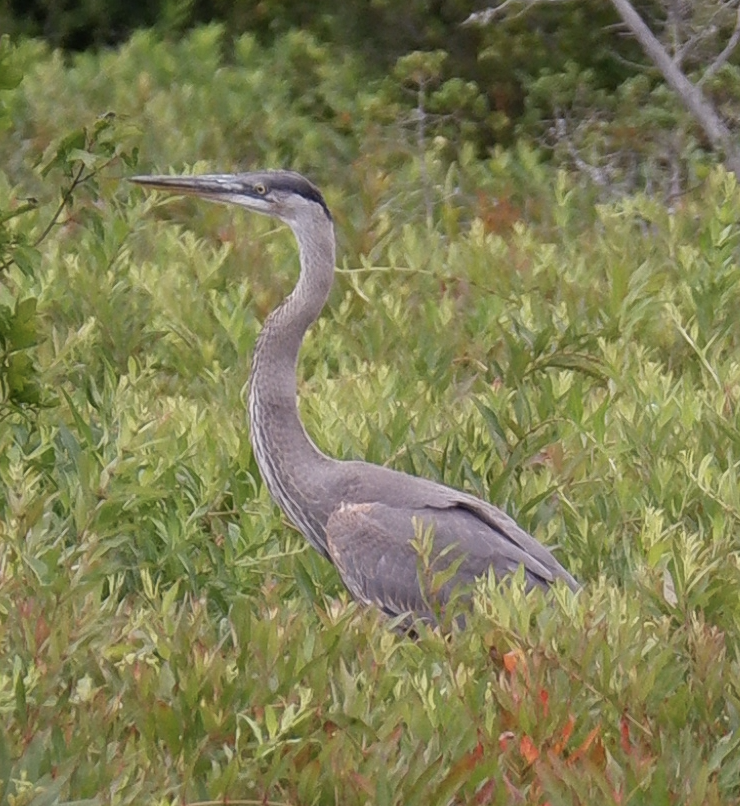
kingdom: Animalia
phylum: Chordata
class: Aves
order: Pelecaniformes
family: Ardeidae
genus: Ardea
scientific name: Ardea herodias
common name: Great blue heron
